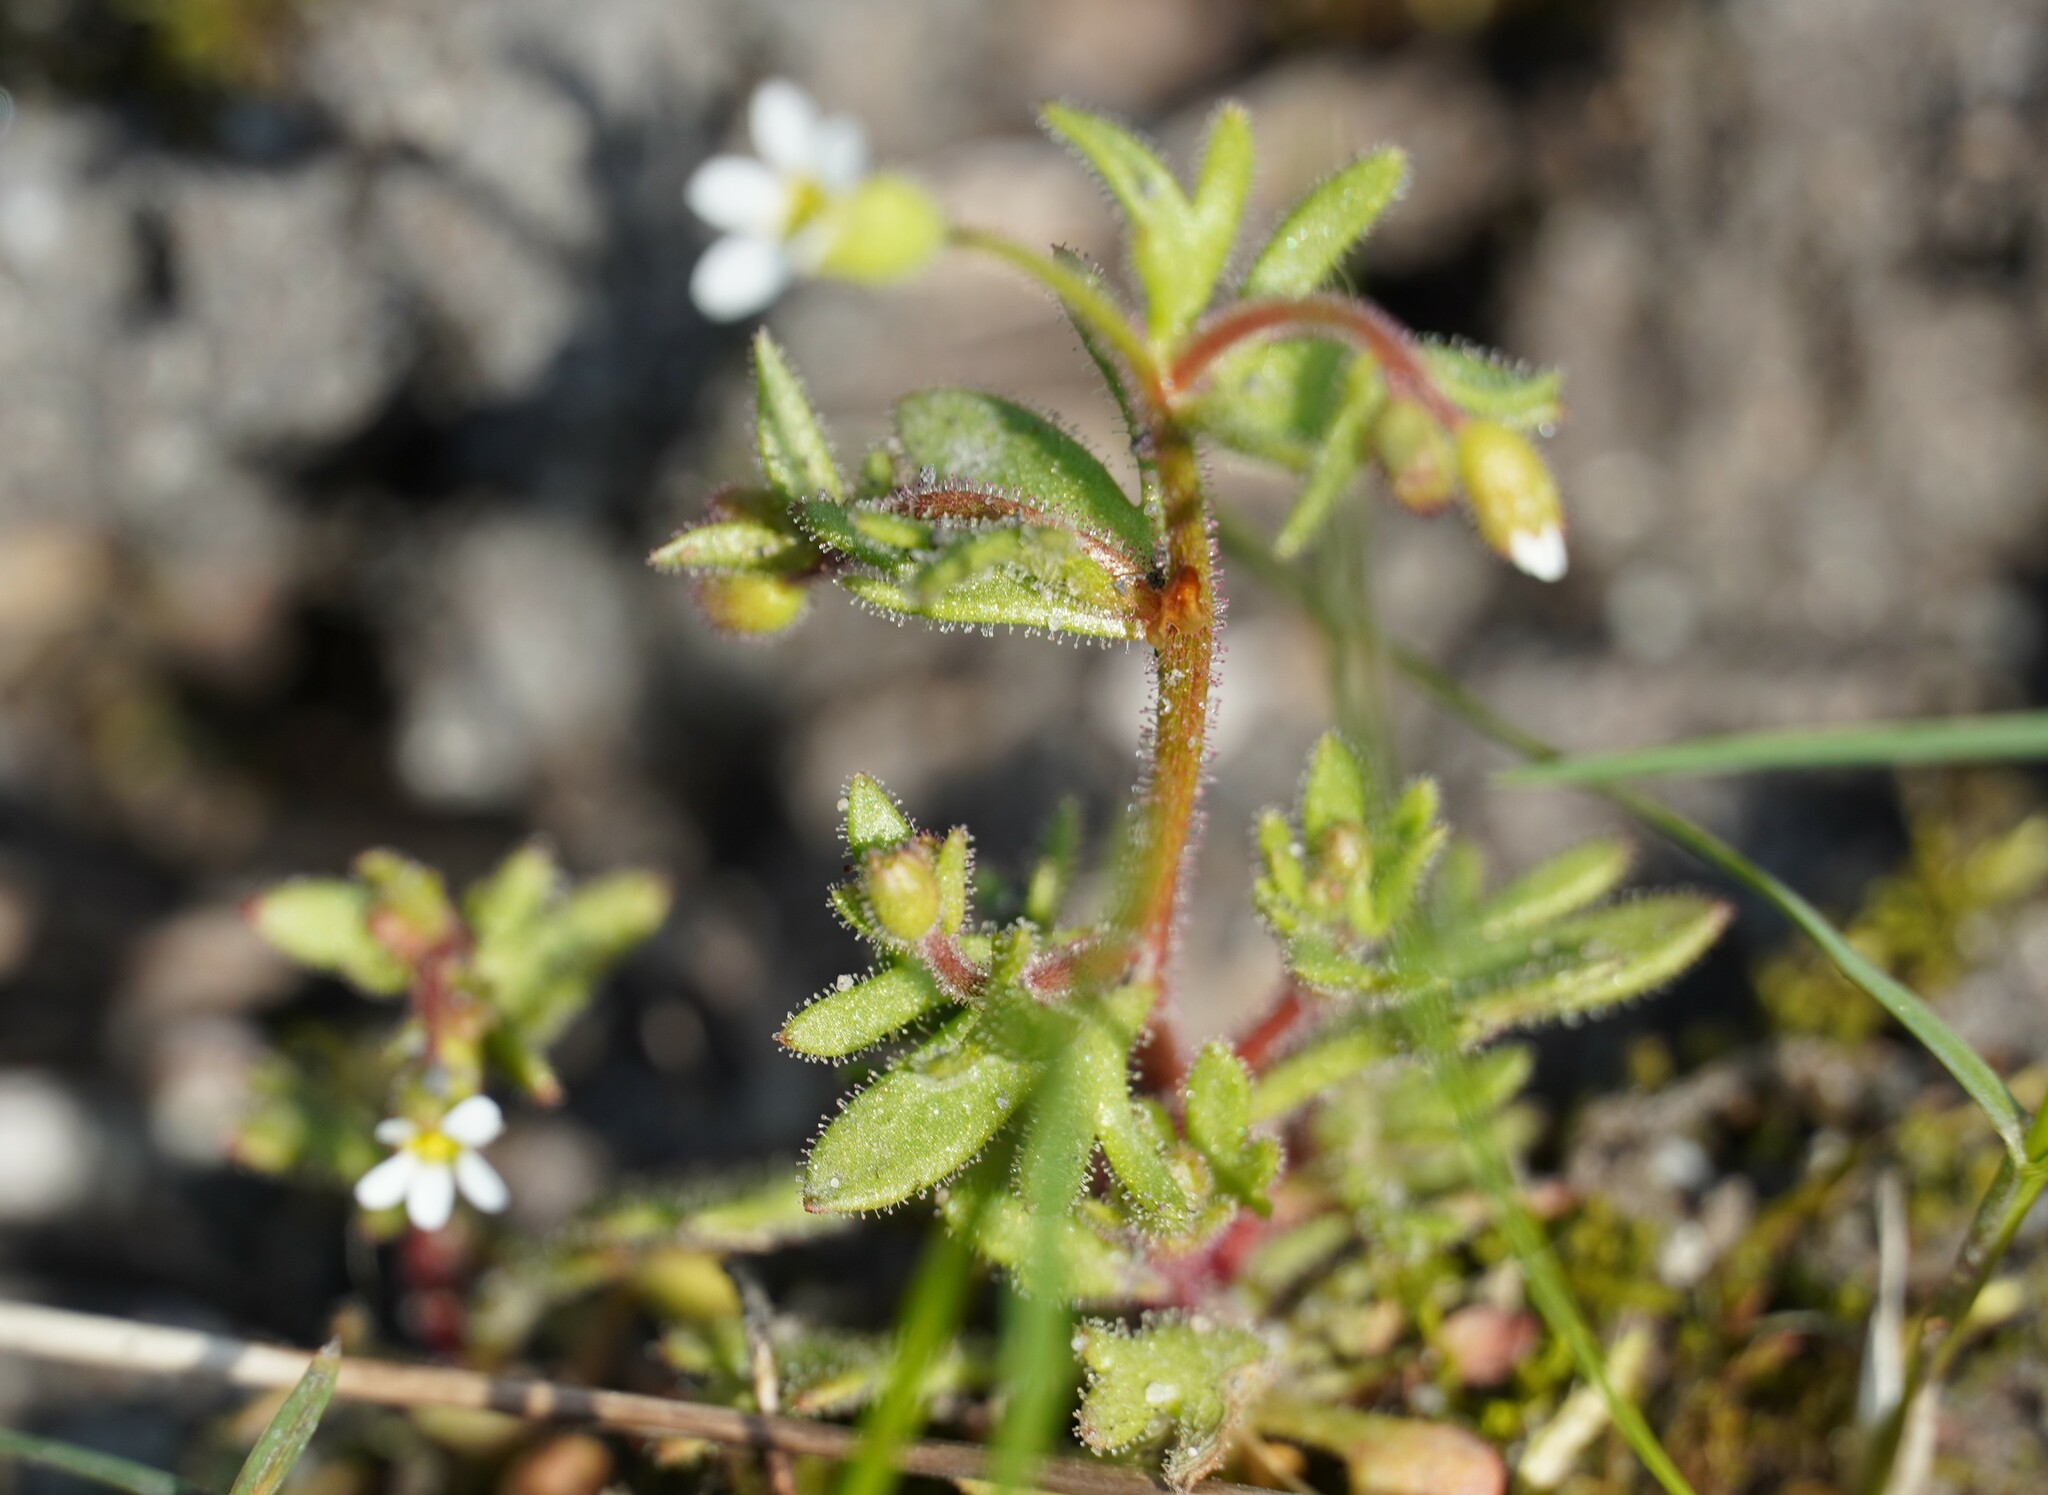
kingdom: Plantae
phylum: Tracheophyta
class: Magnoliopsida
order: Saxifragales
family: Saxifragaceae
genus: Saxifraga
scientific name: Saxifraga tridactylites
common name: Rue-leaved saxifrage
